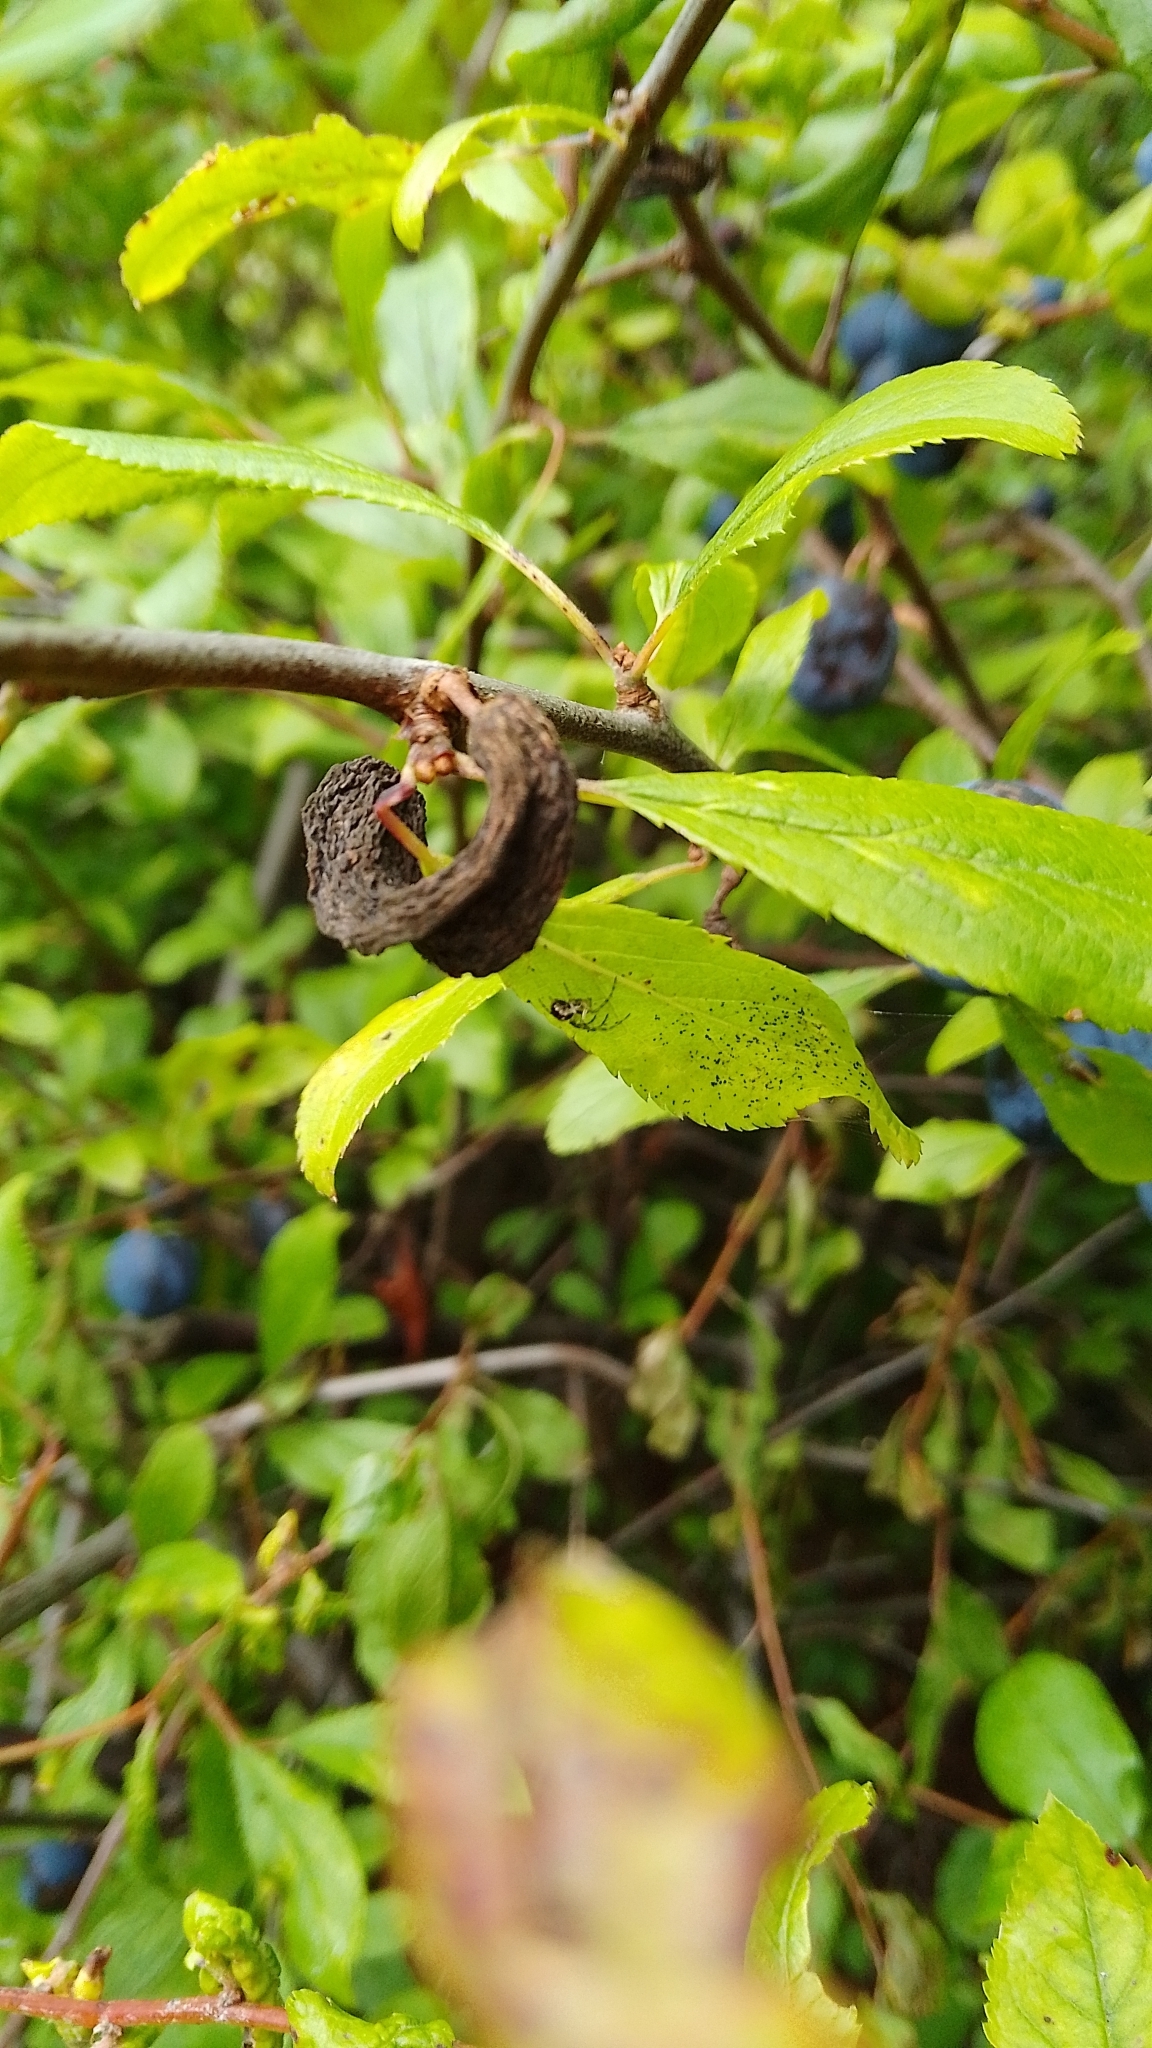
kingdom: Fungi
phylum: Ascomycota
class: Taphrinomycetes
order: Taphrinales
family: Taphrinaceae
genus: Taphrina
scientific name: Taphrina pruni
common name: Pocket plum
